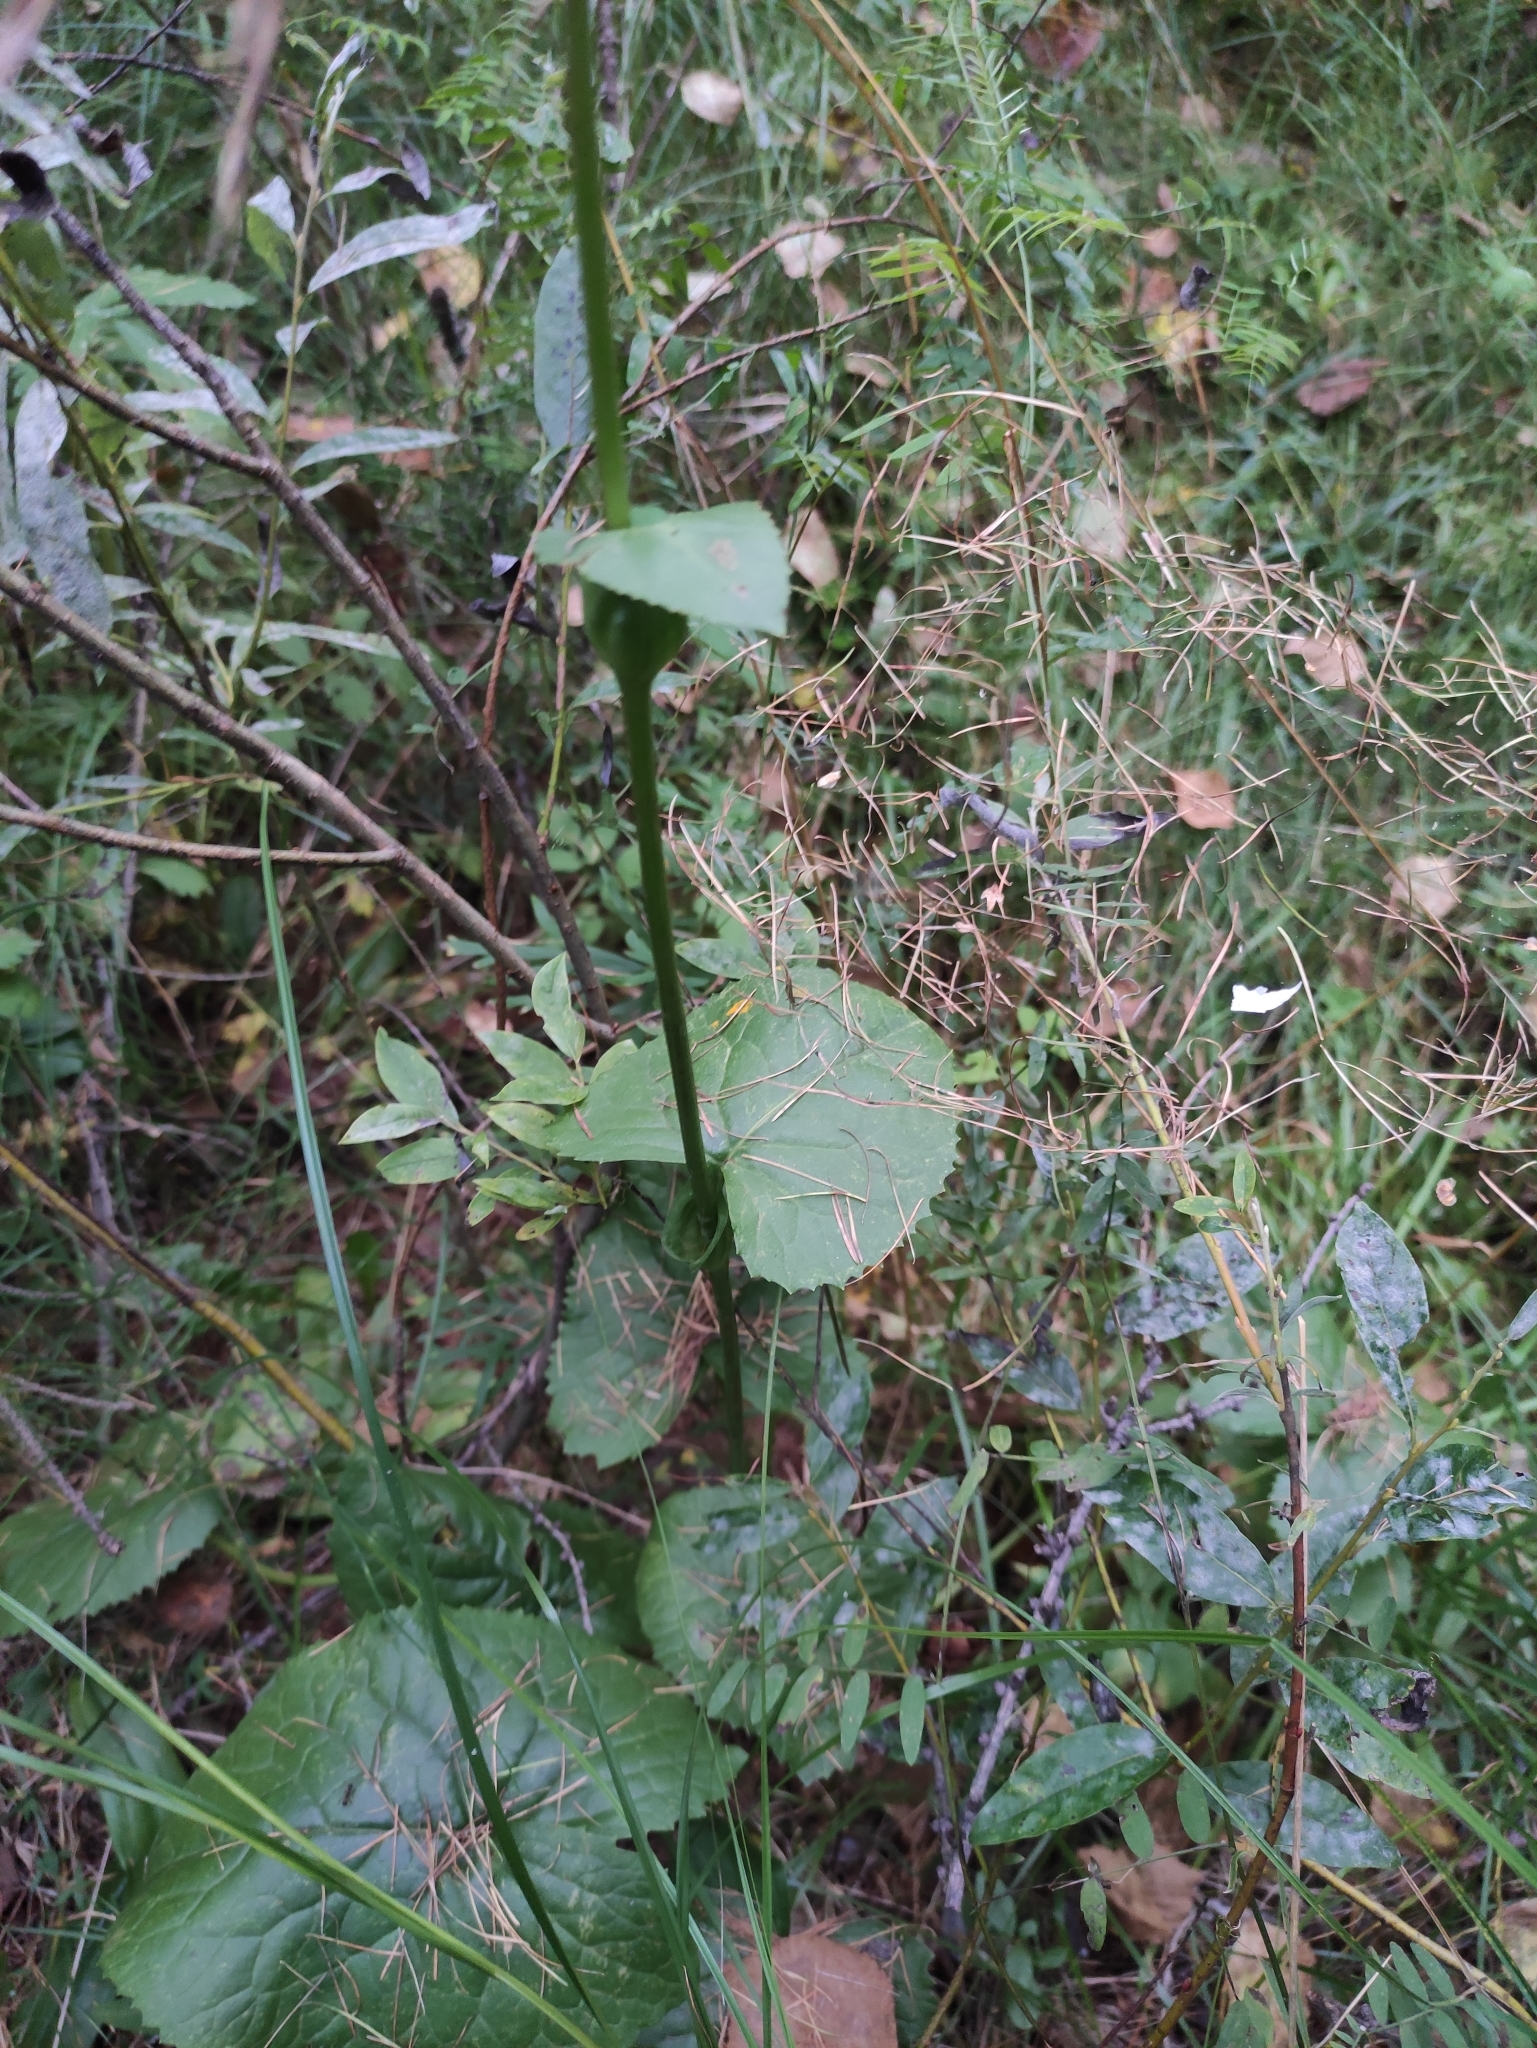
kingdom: Plantae
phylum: Tracheophyta
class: Magnoliopsida
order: Asterales
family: Asteraceae
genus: Ligularia
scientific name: Ligularia sibirica
